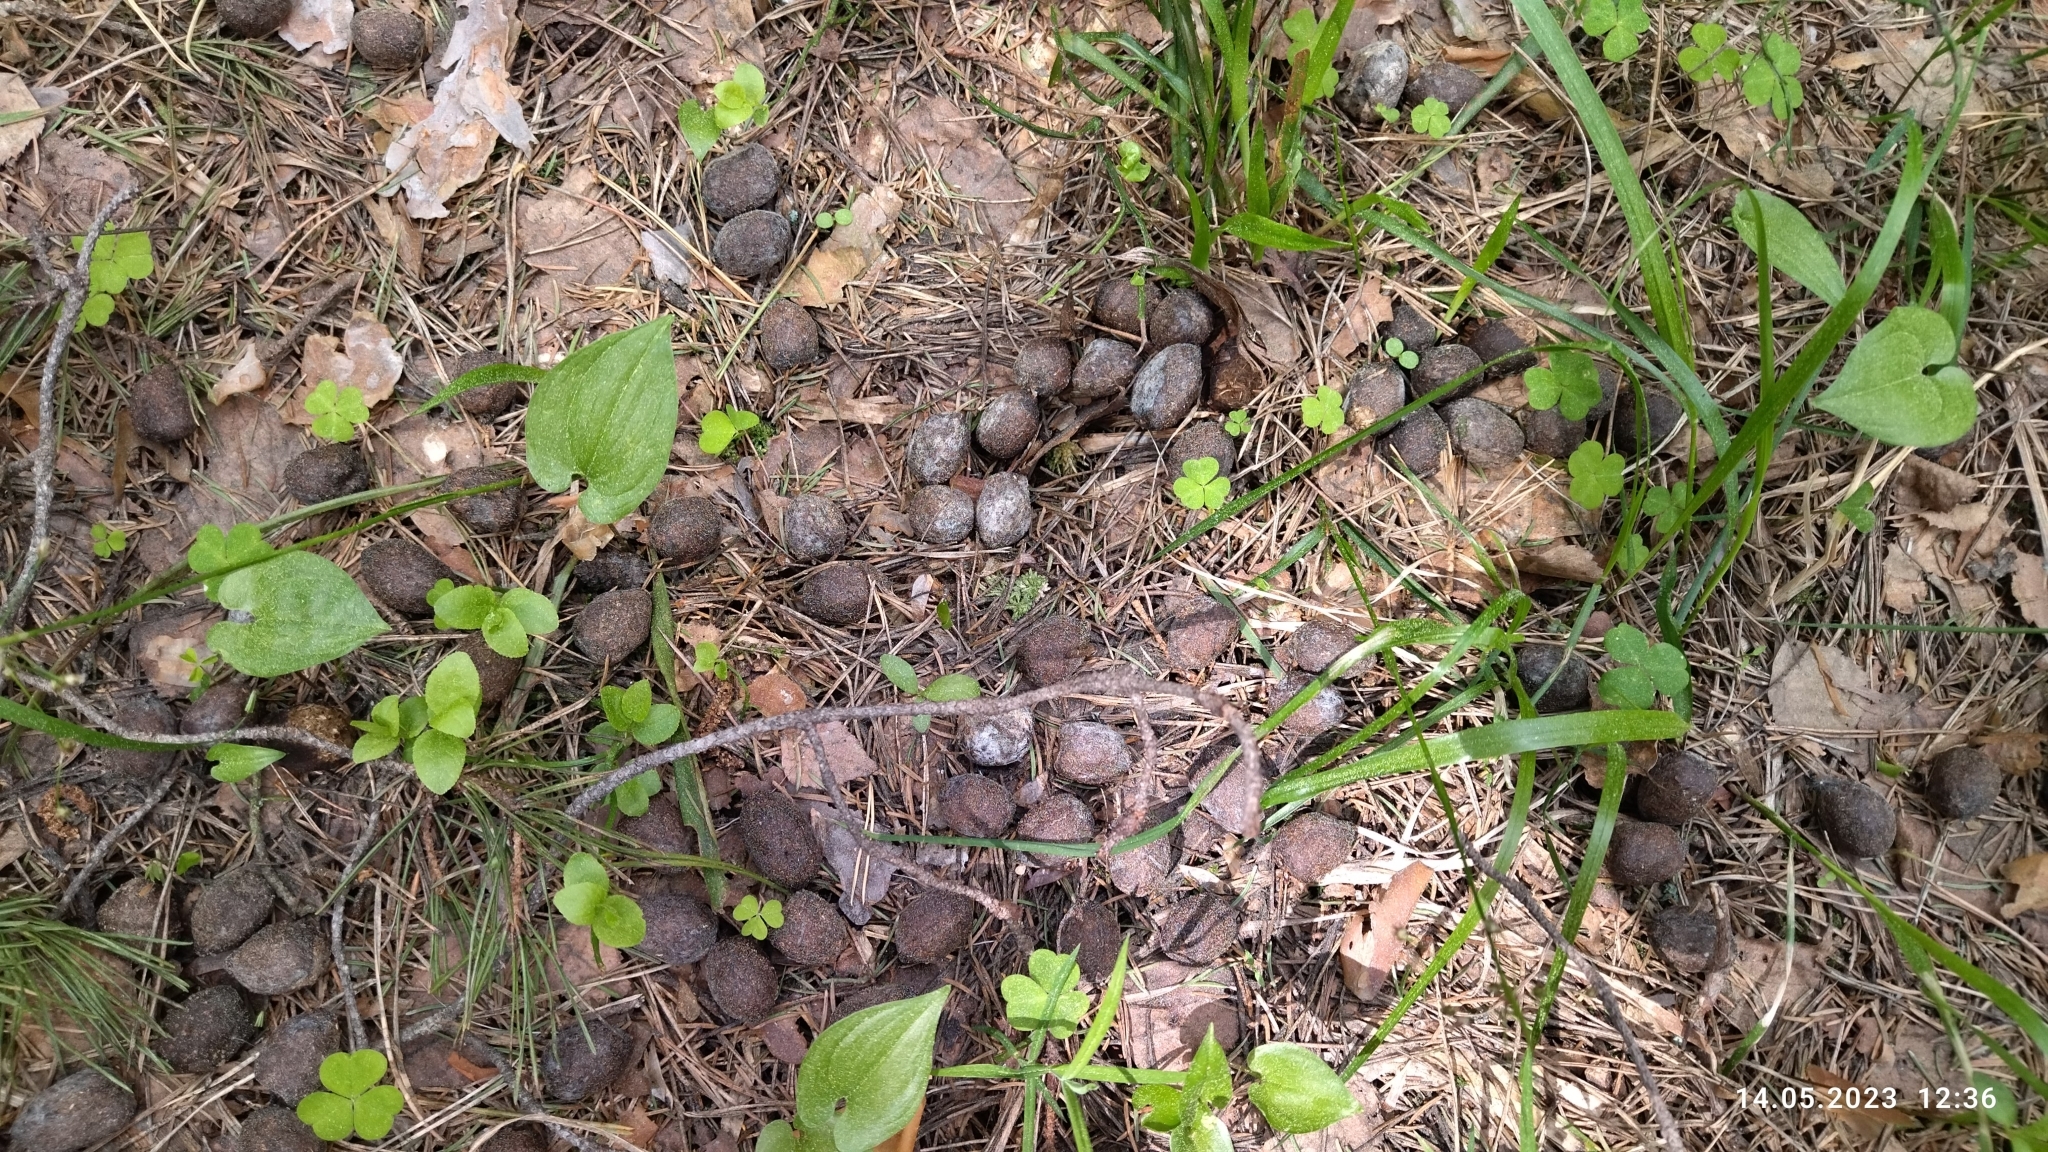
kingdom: Animalia
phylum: Chordata
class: Mammalia
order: Artiodactyla
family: Cervidae
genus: Alces
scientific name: Alces alces
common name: Moose
